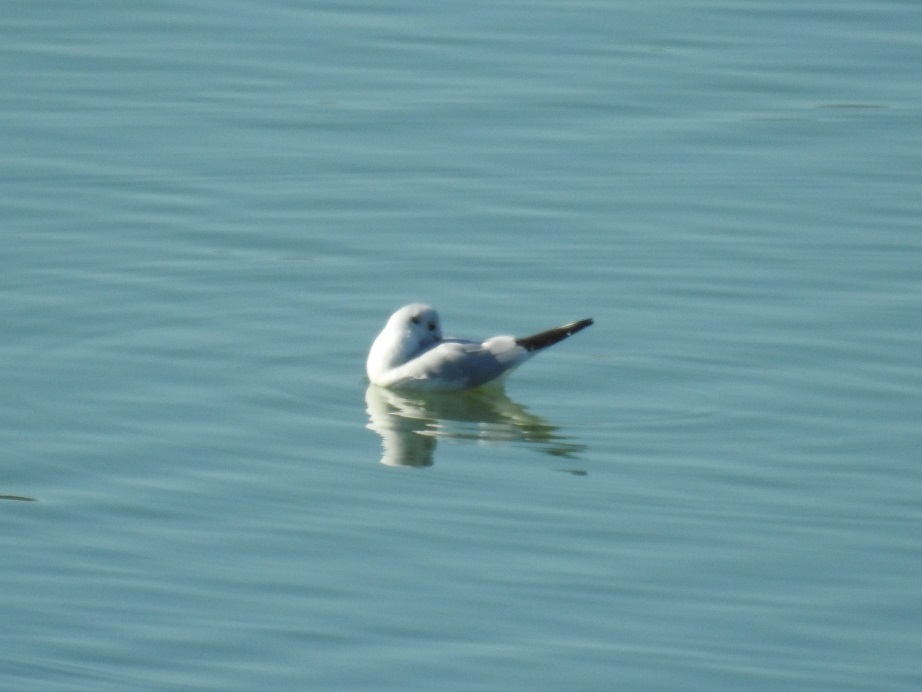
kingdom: Animalia
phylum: Chordata
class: Aves
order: Charadriiformes
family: Laridae
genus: Chroicocephalus
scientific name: Chroicocephalus ridibundus
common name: Black-headed gull
